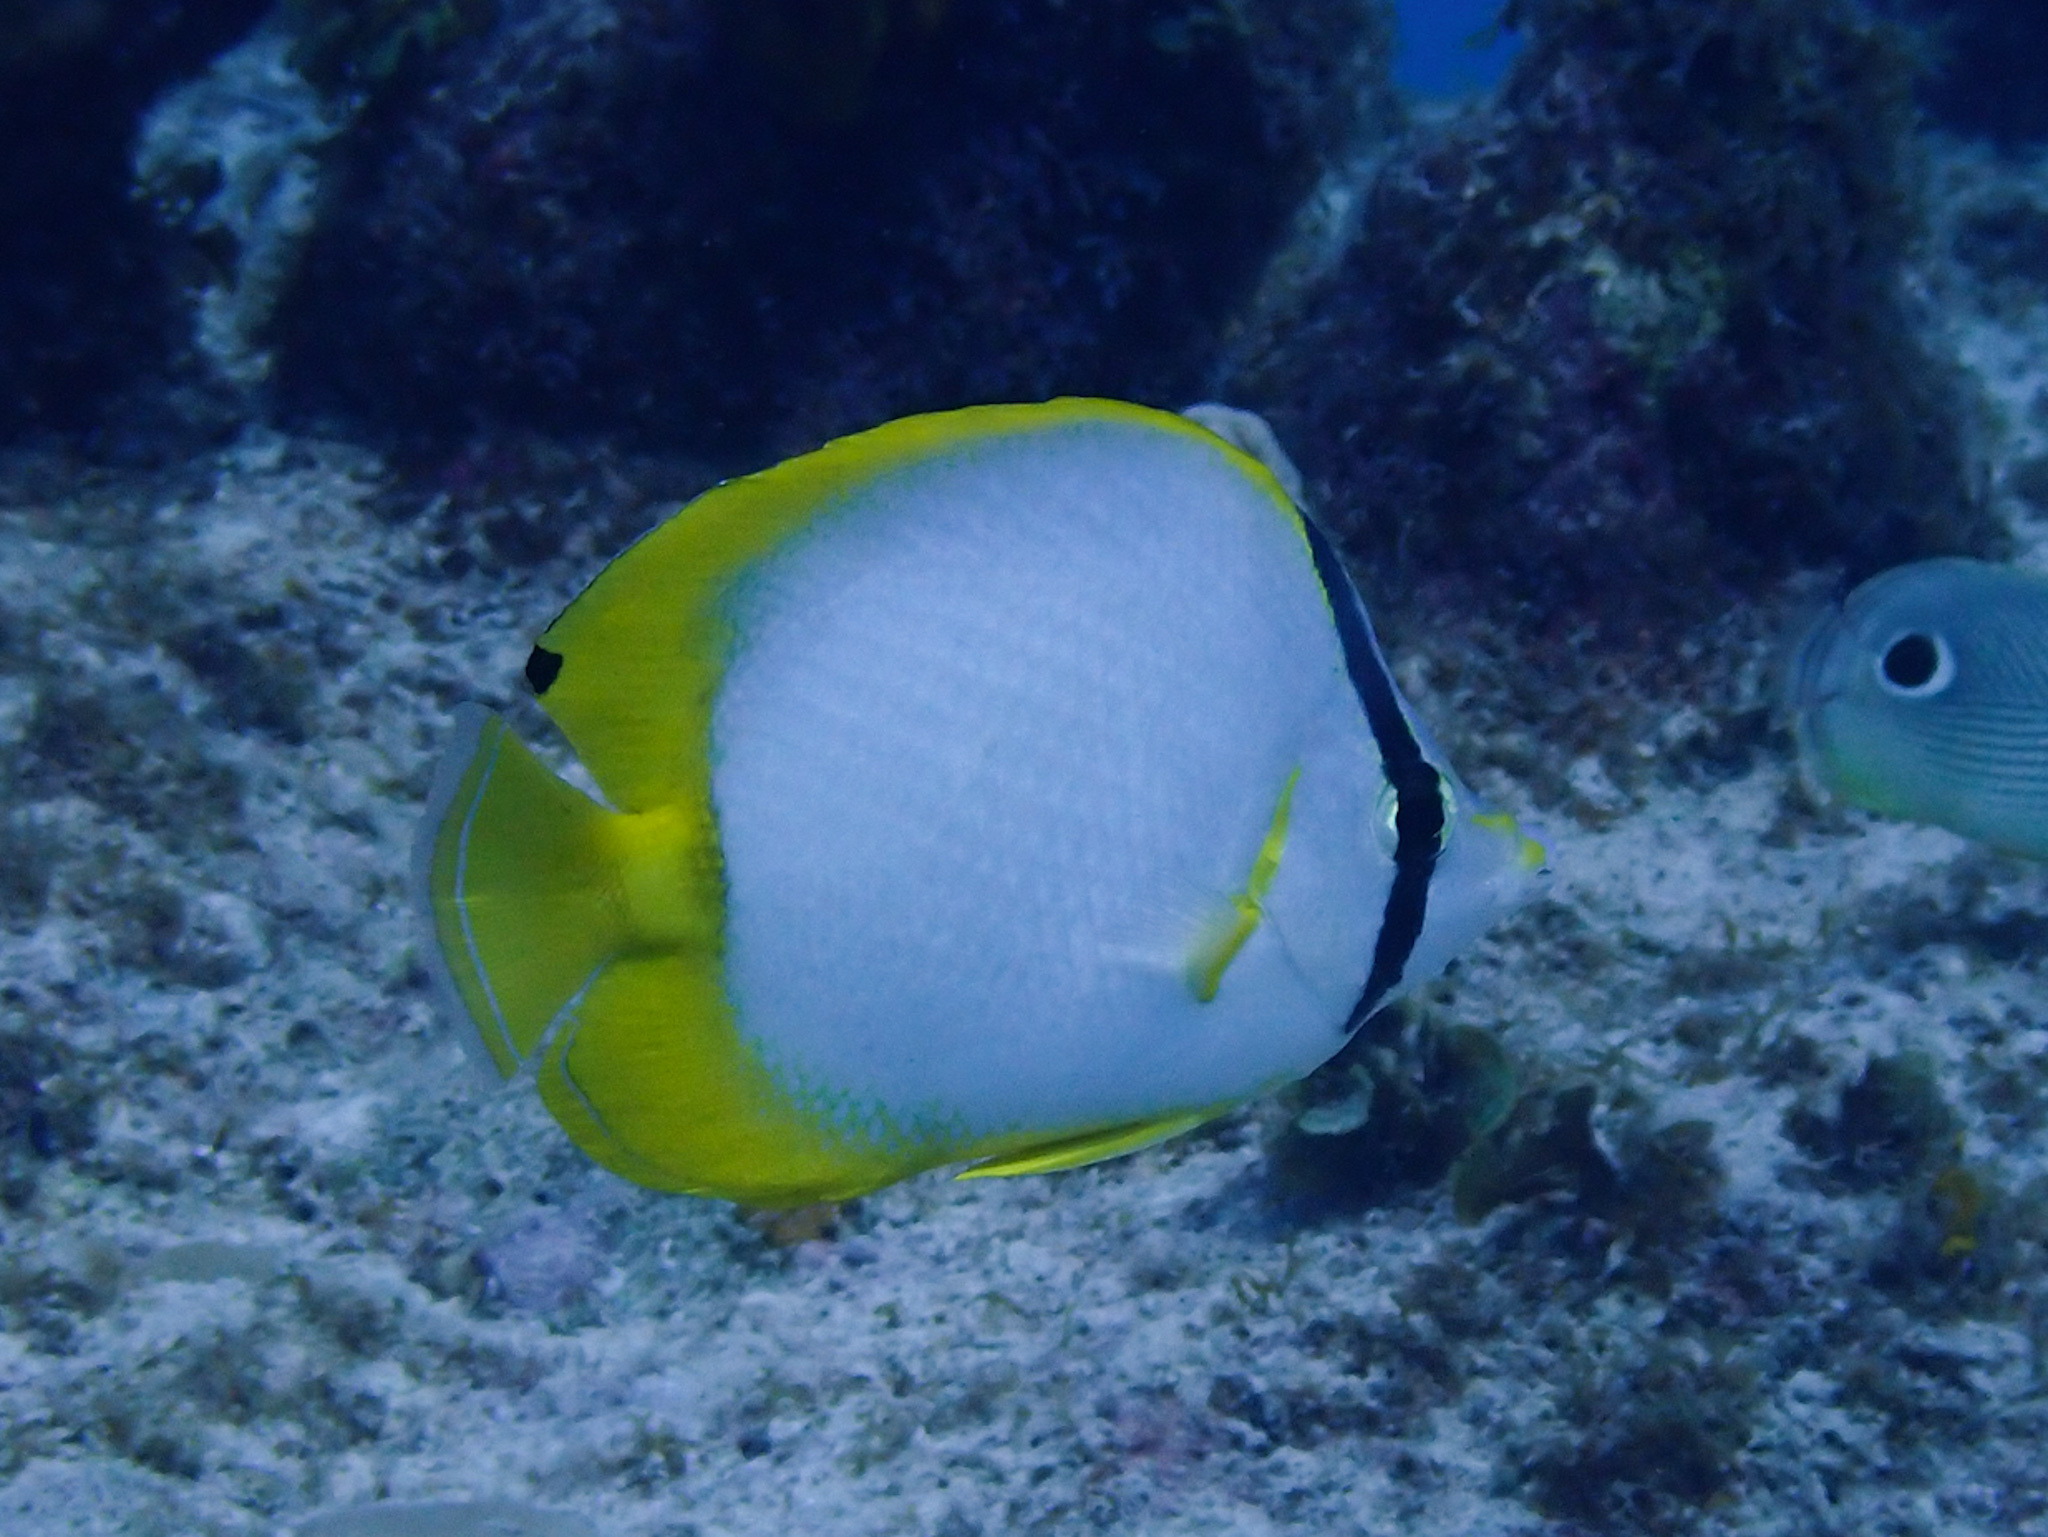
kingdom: Animalia
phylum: Chordata
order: Perciformes
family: Chaetodontidae
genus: Chaetodon
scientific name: Chaetodon ocellatus
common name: Spotfin butterflyfish
